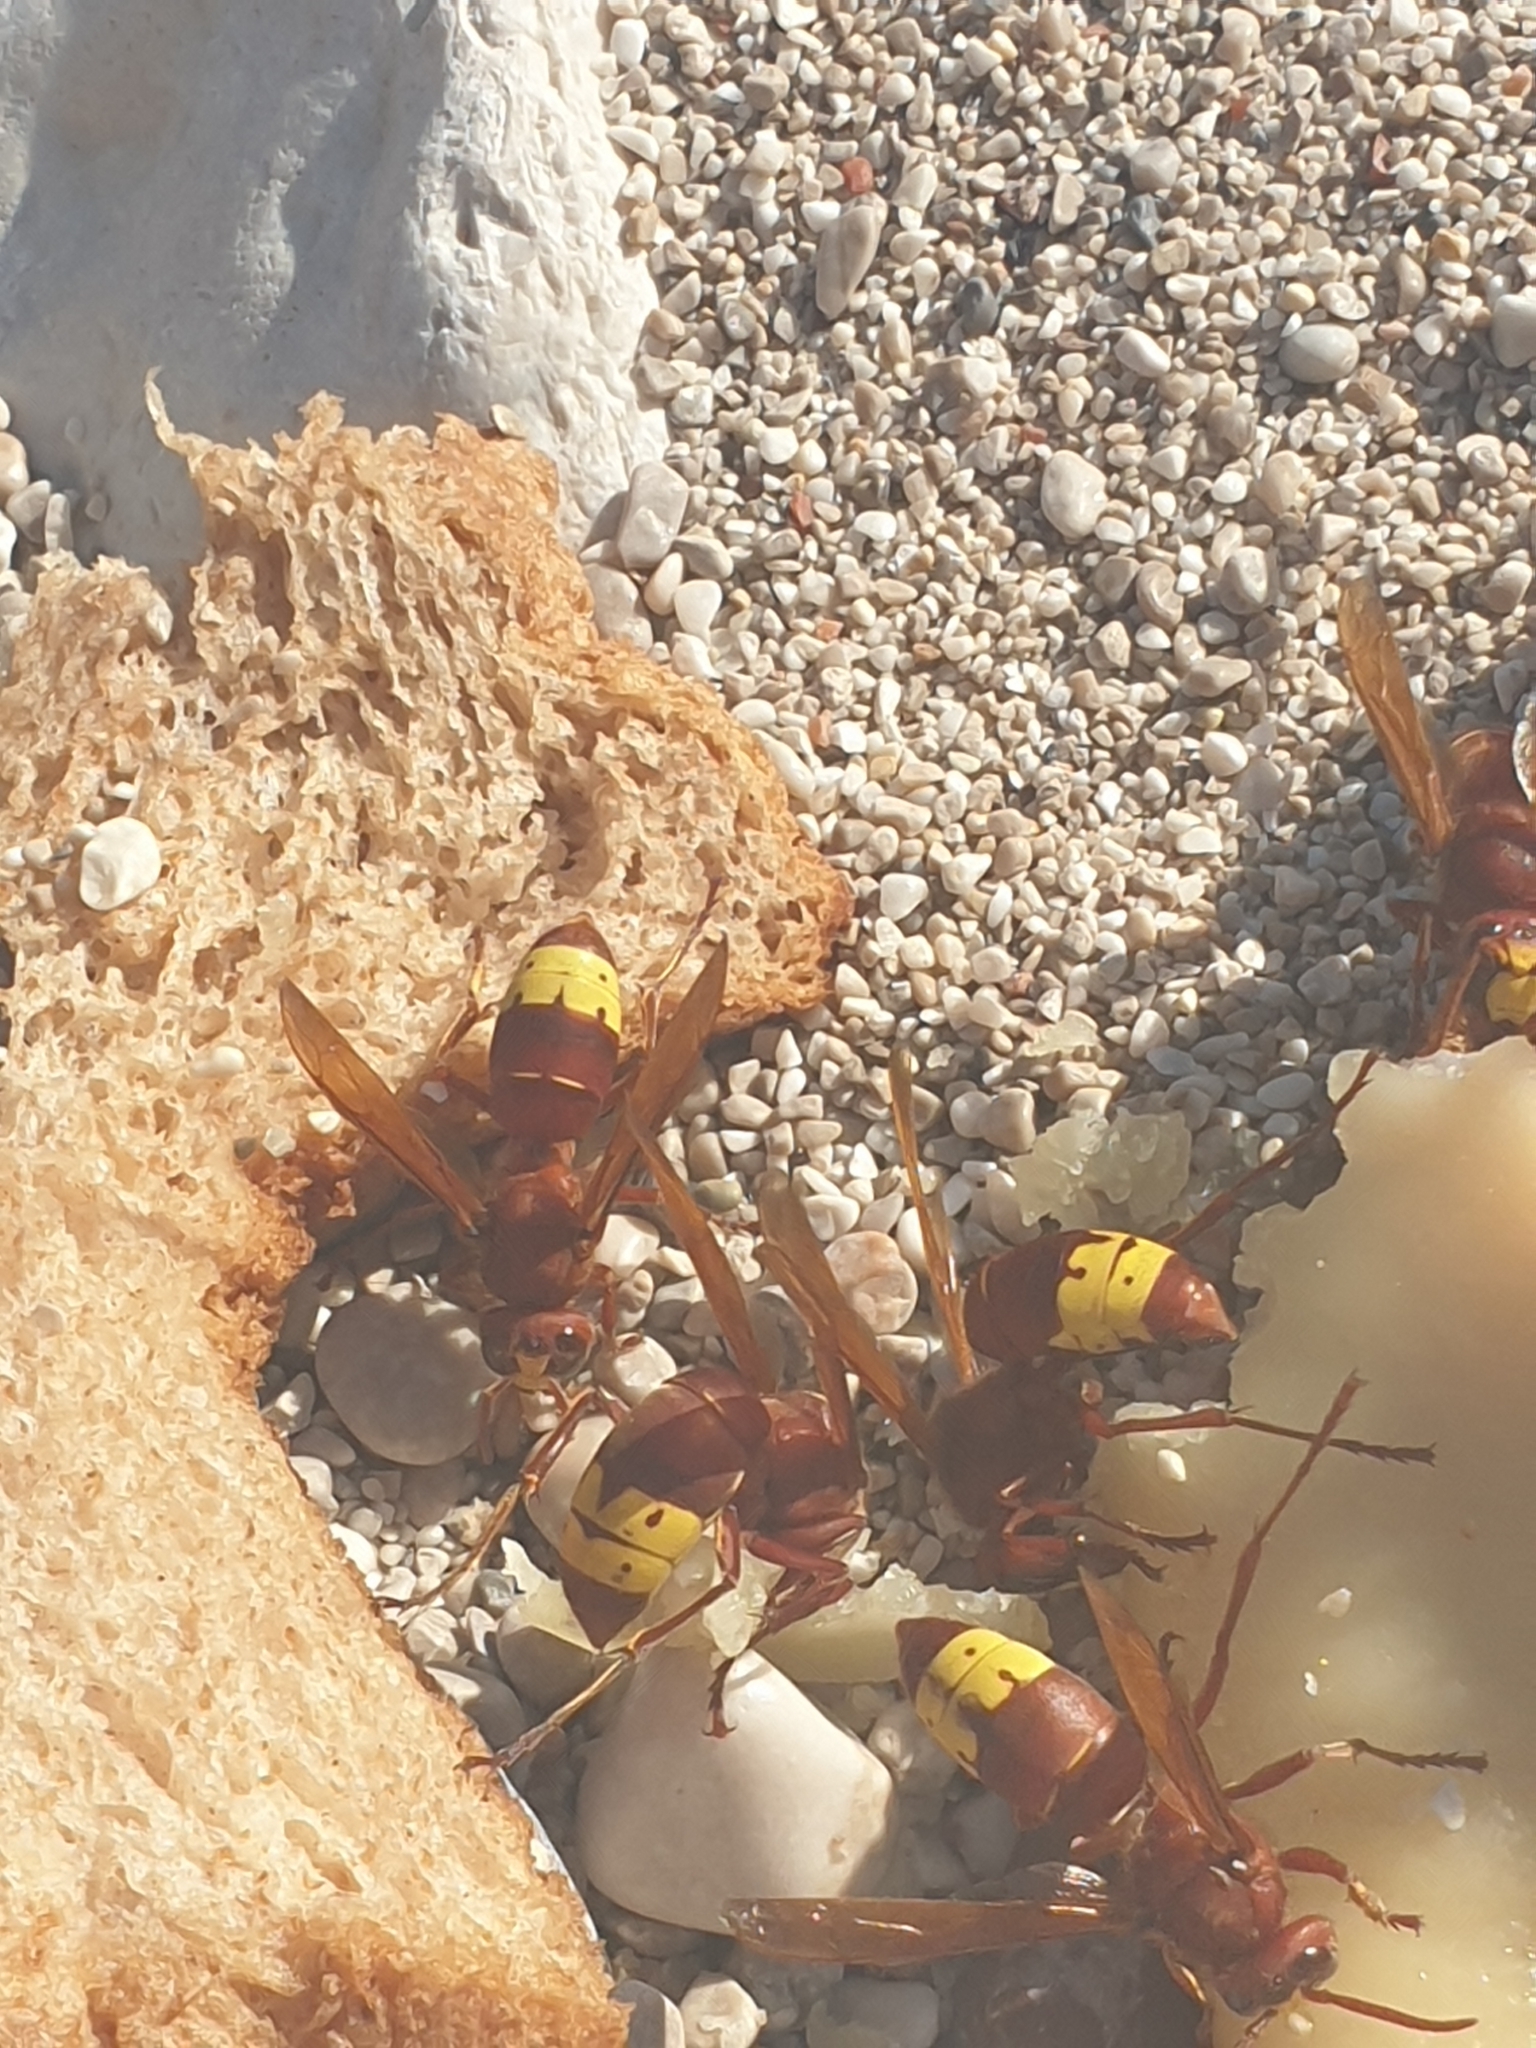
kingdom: Animalia
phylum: Arthropoda
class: Insecta
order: Hymenoptera
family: Vespidae
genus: Vespa
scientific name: Vespa orientalis
